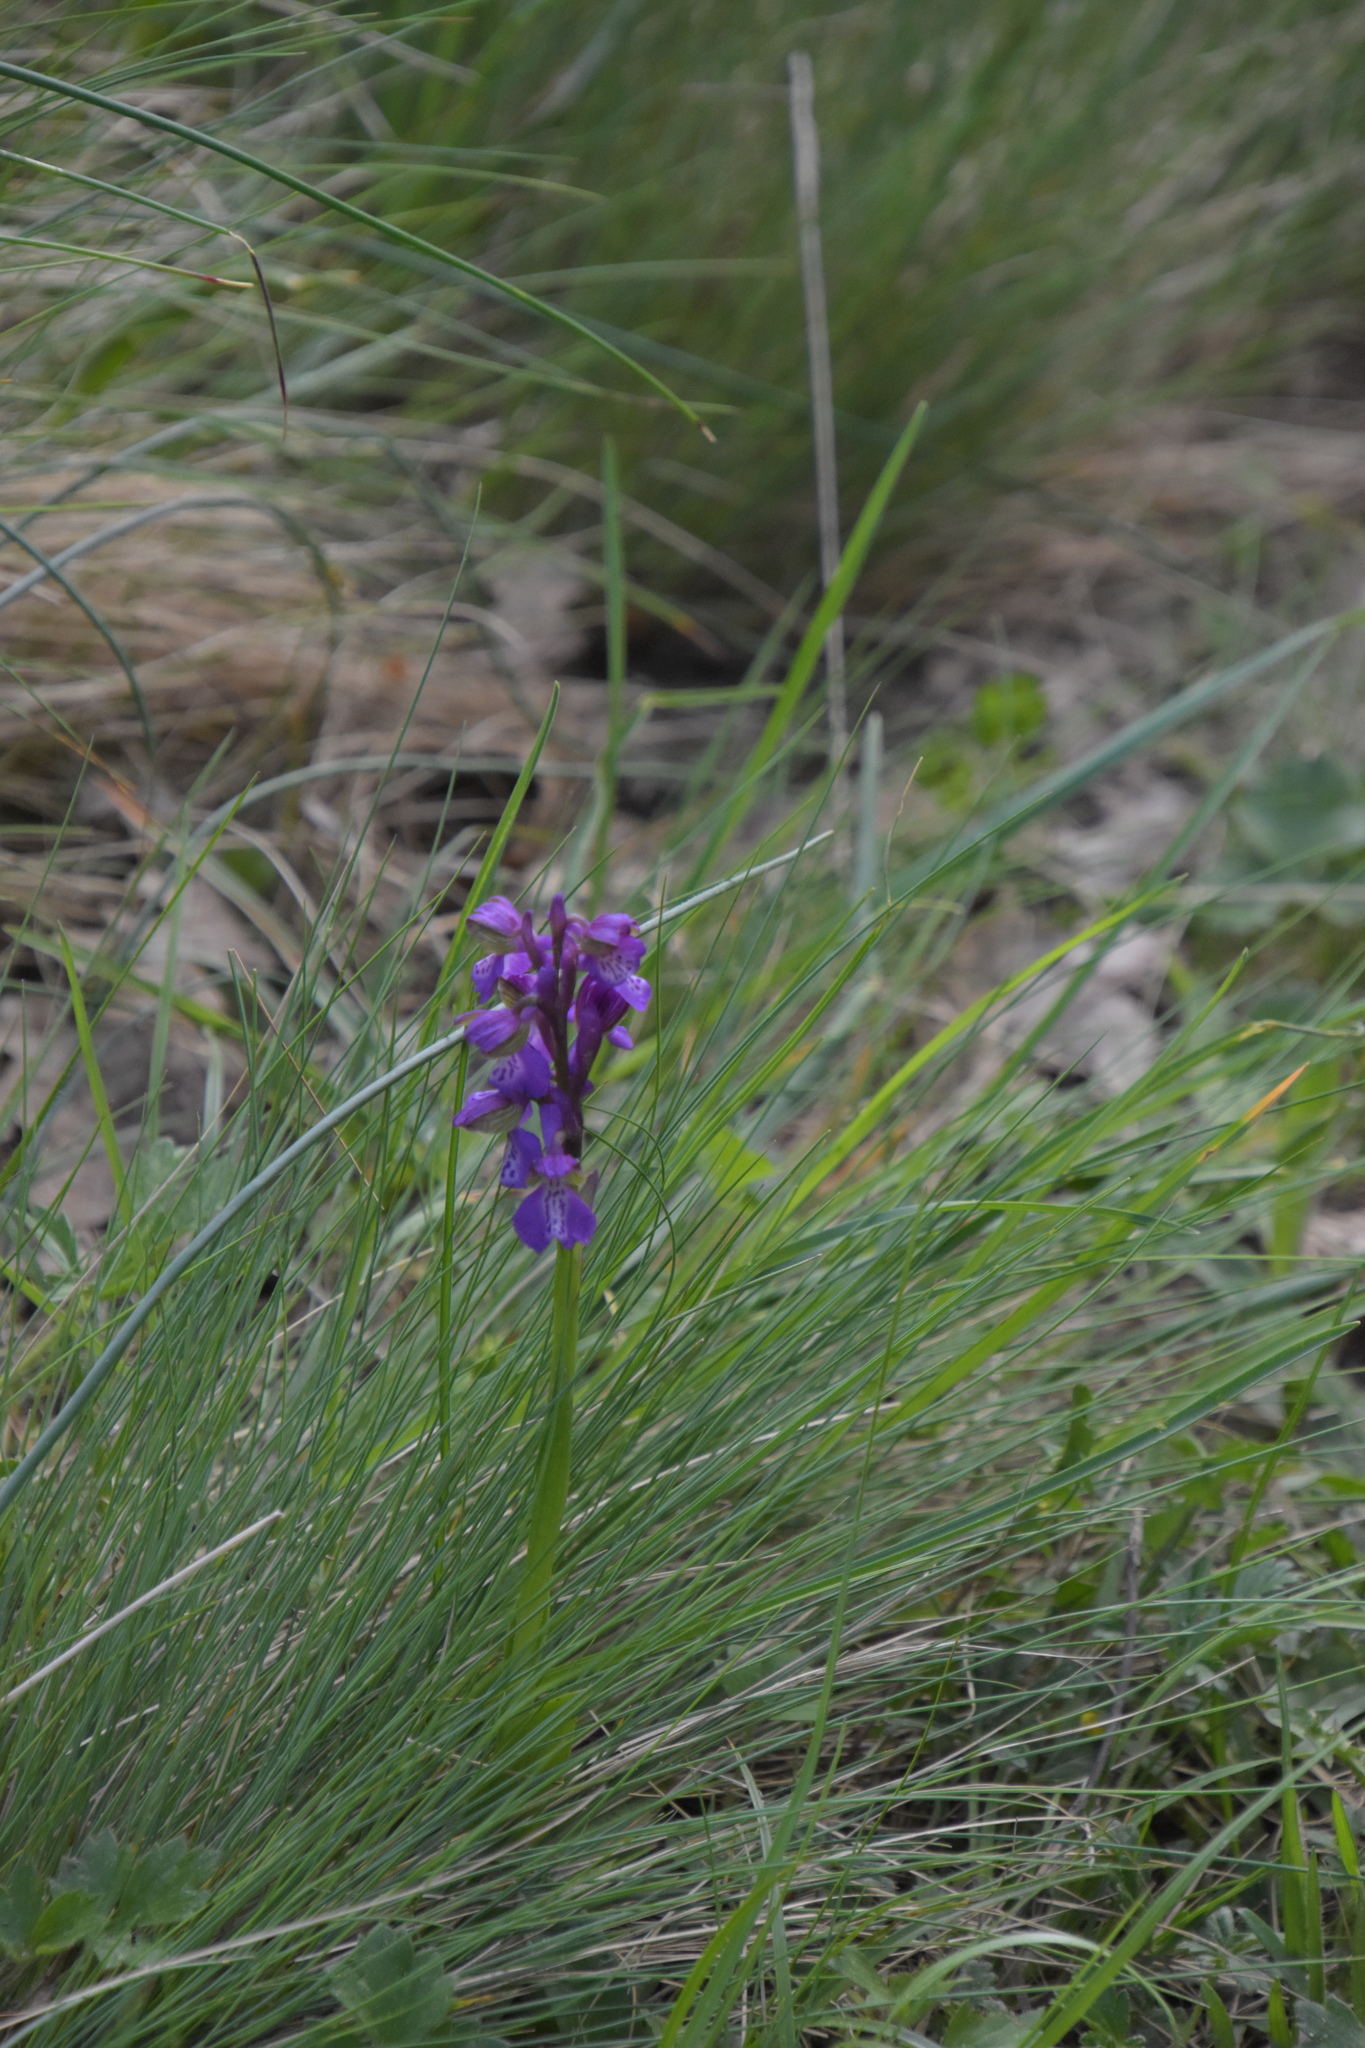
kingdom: Plantae
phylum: Tracheophyta
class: Liliopsida
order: Asparagales
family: Orchidaceae
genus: Anacamptis
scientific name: Anacamptis morio
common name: Green-winged orchid
